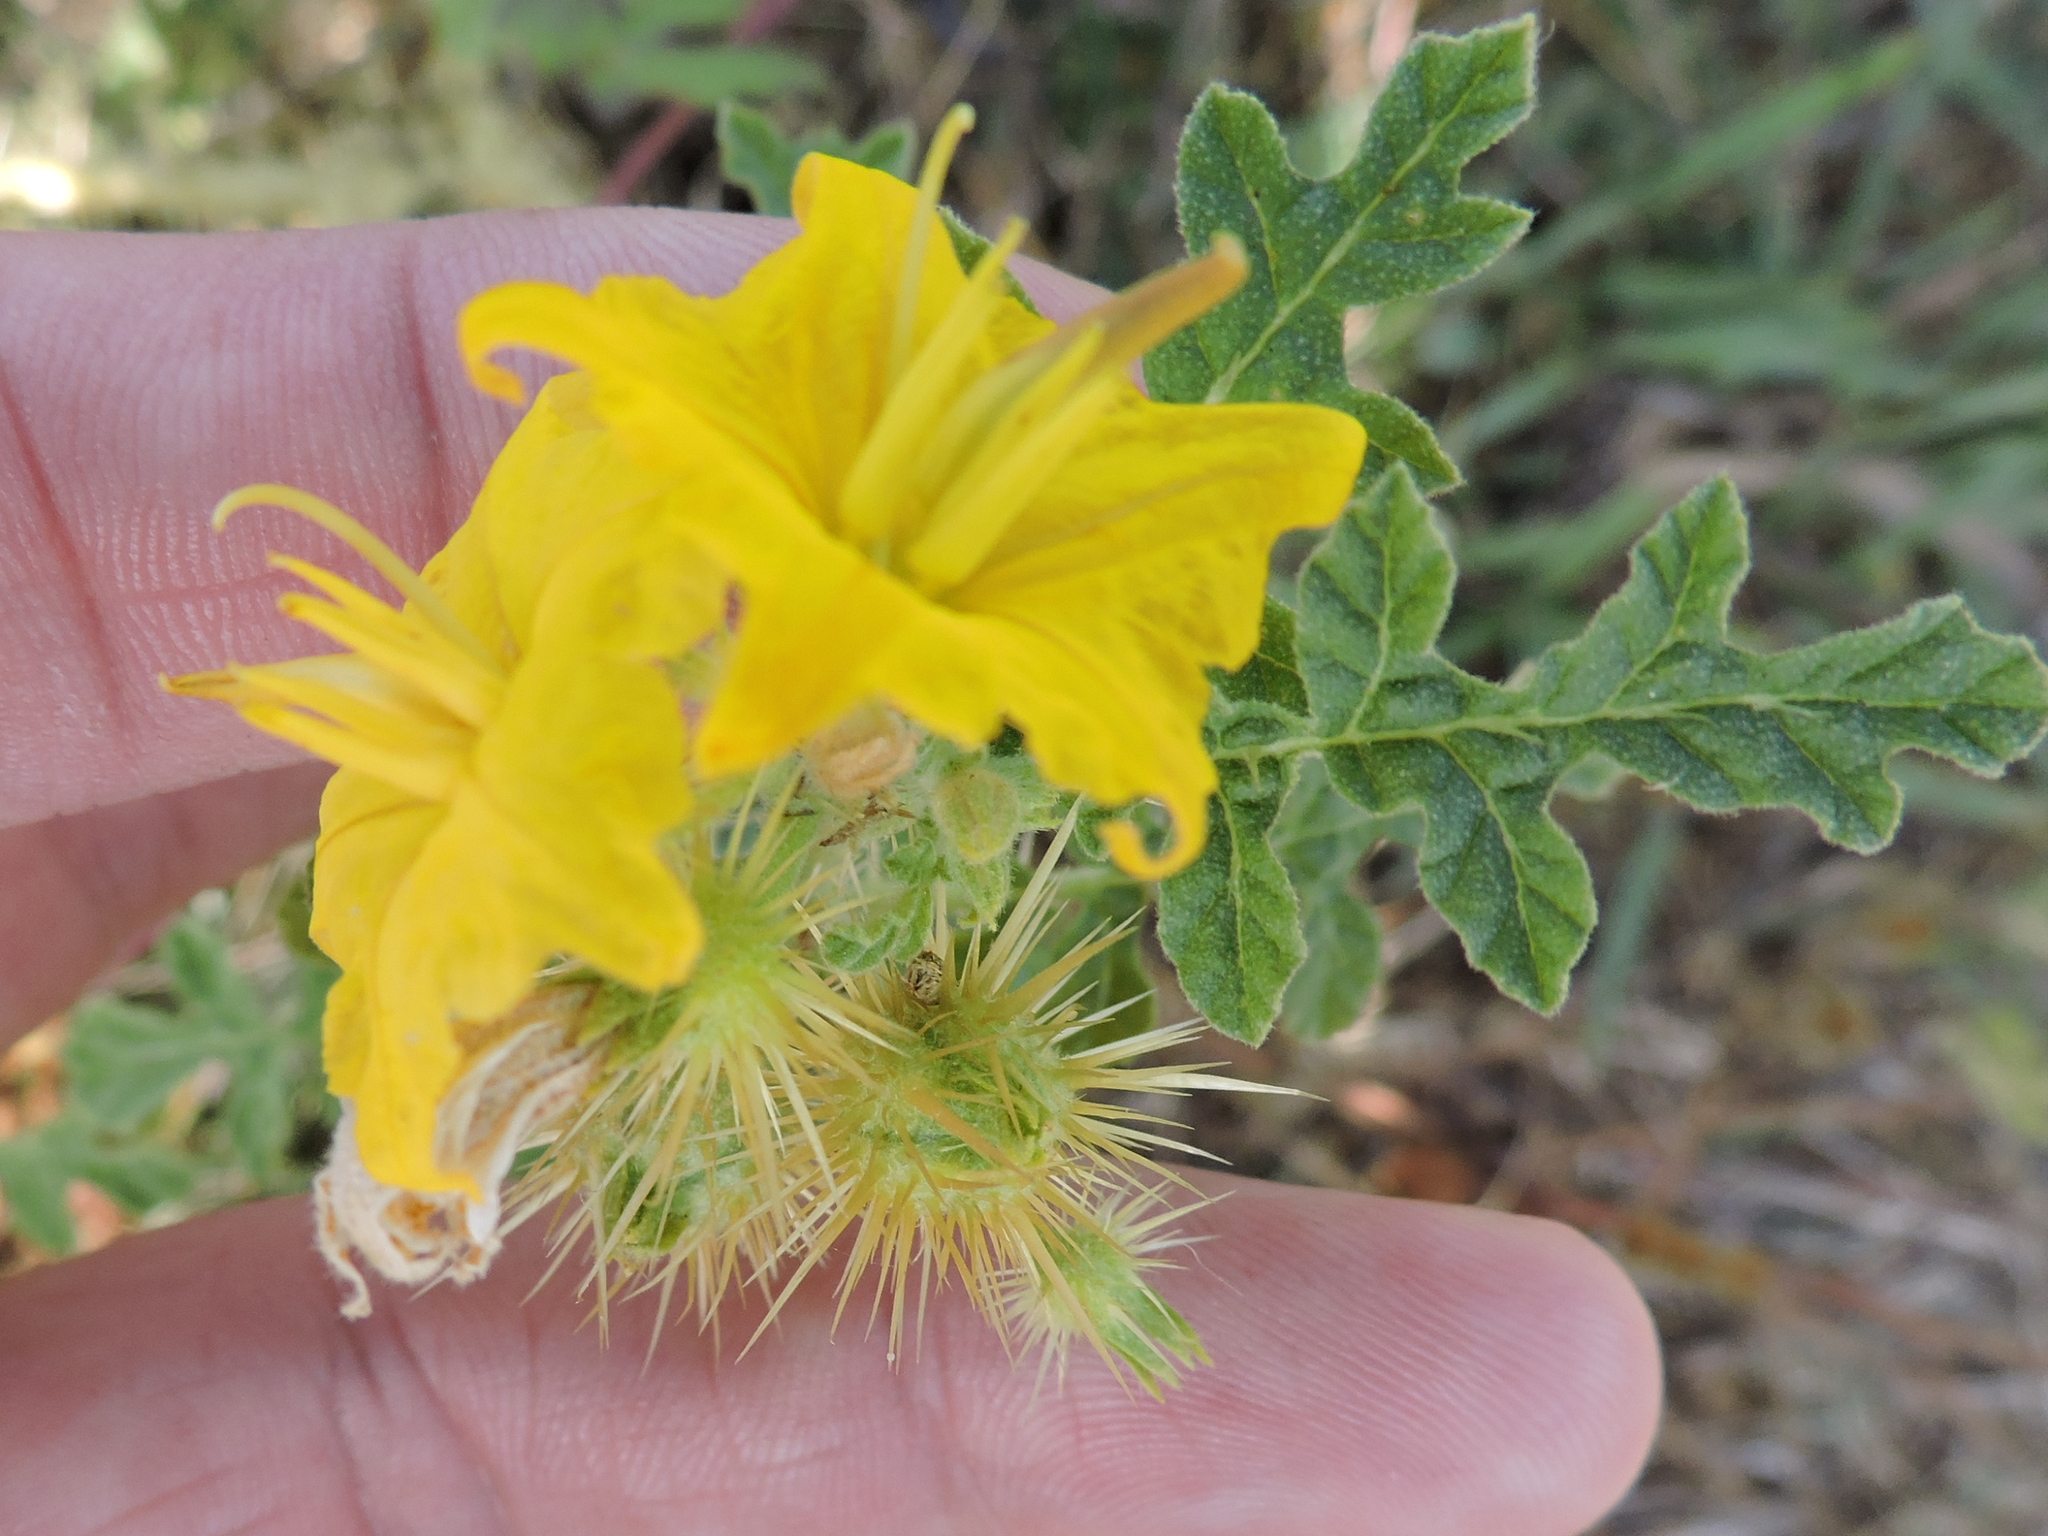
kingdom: Plantae
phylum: Tracheophyta
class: Magnoliopsida
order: Solanales
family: Solanaceae
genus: Solanum
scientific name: Solanum angustifolium
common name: Buffalobur nightshade
